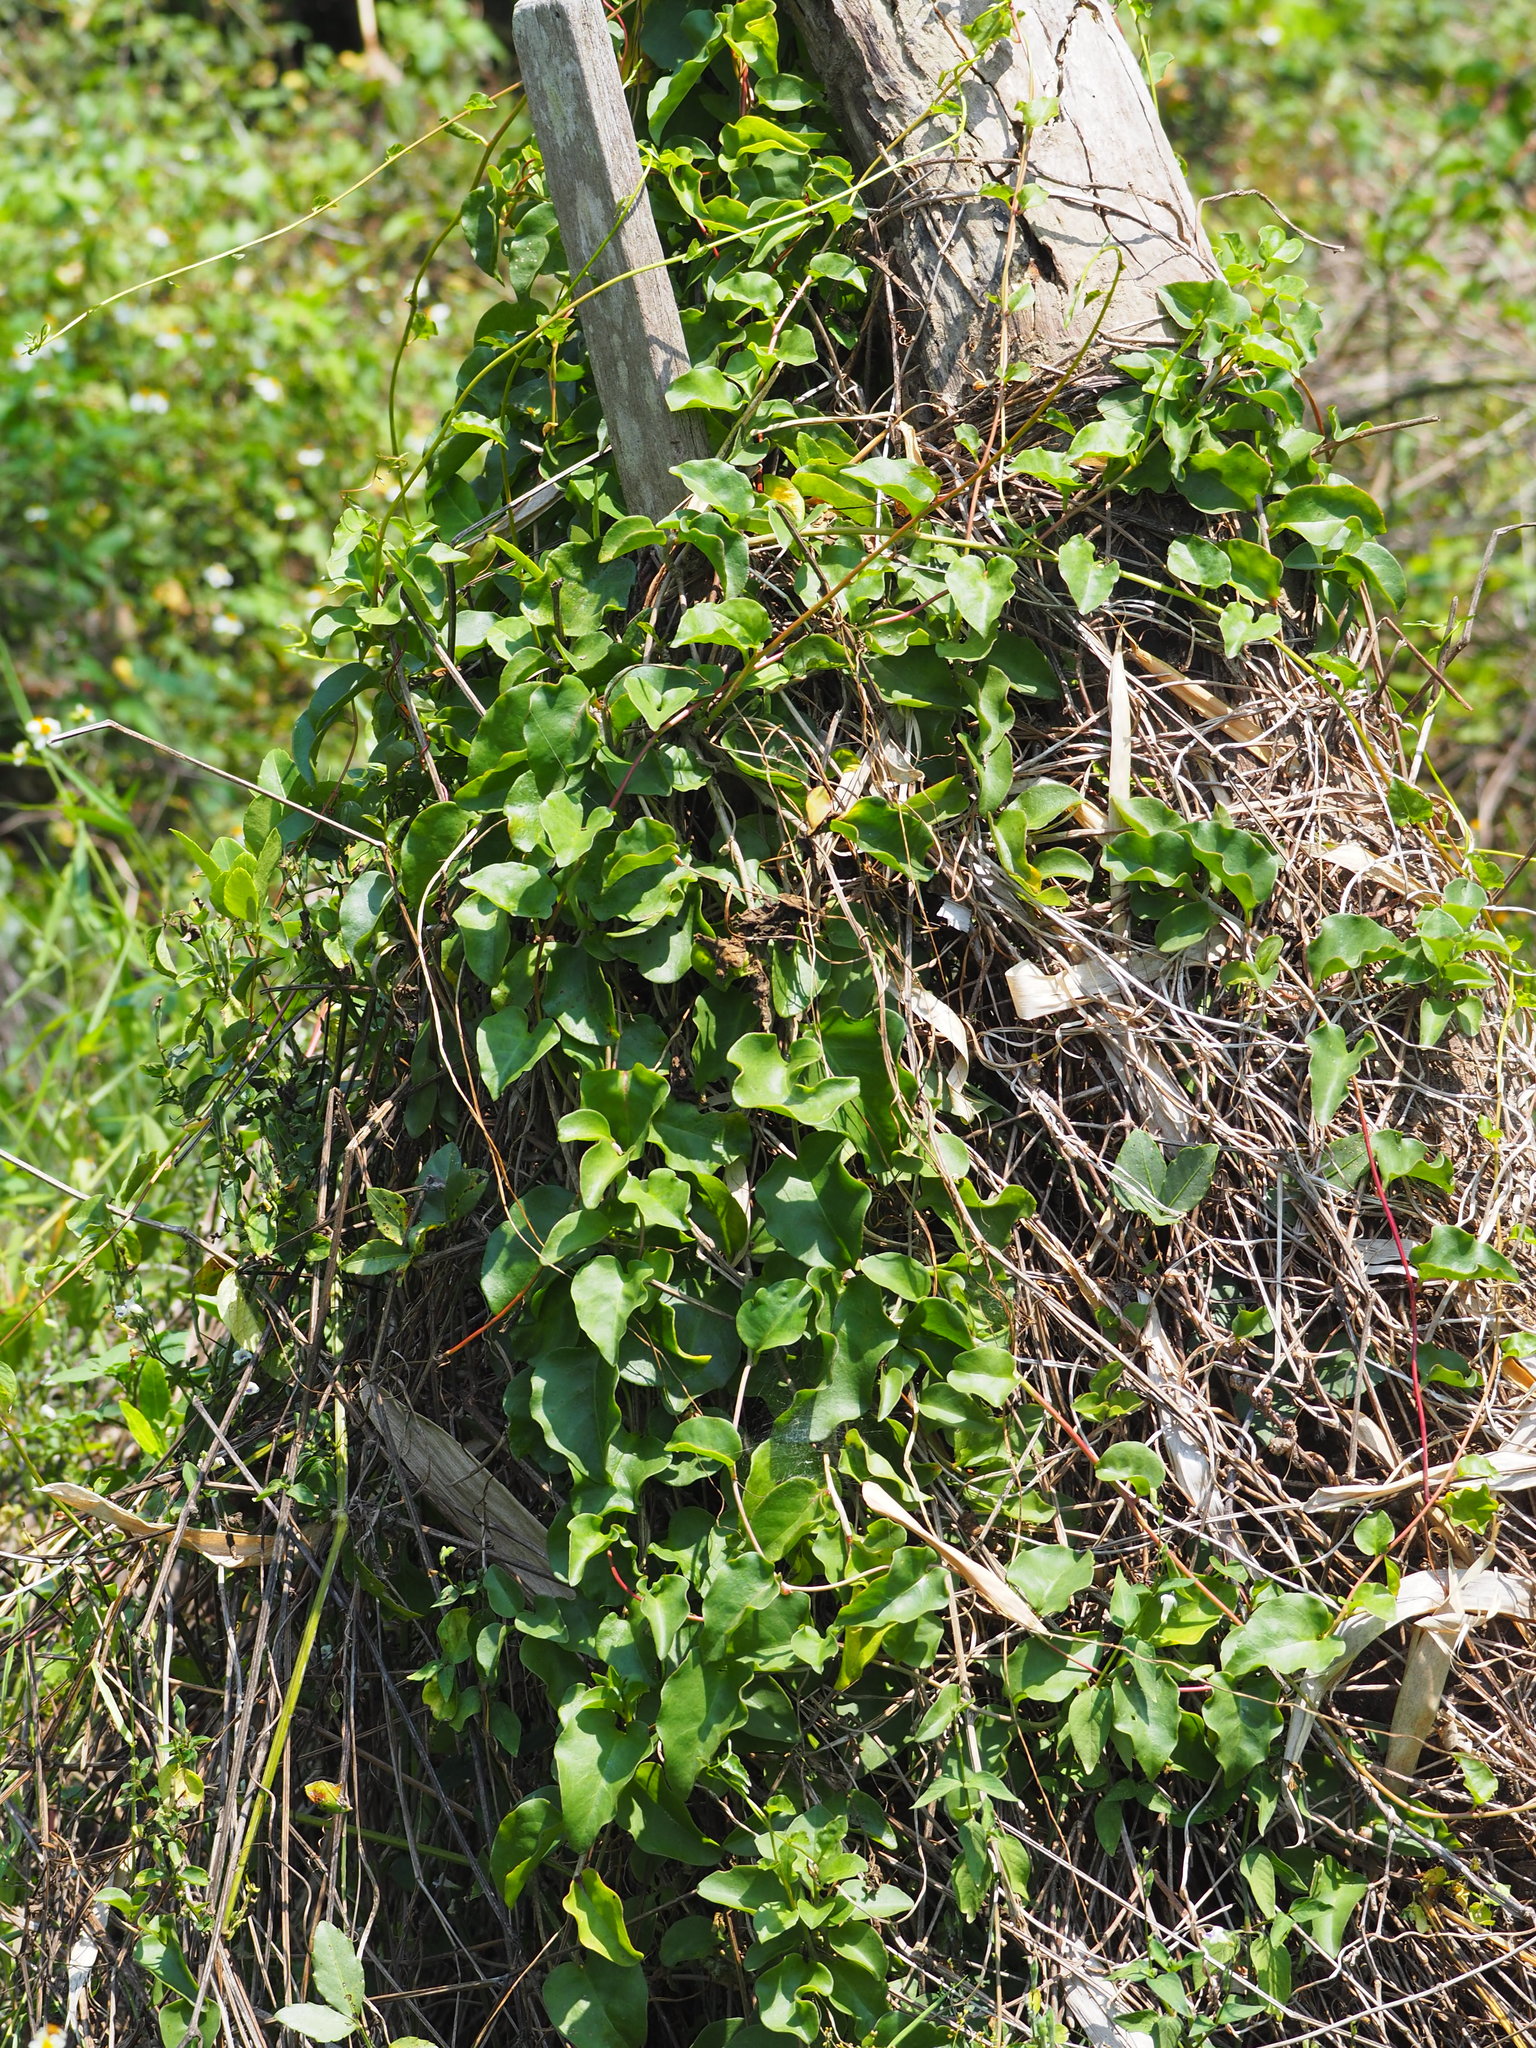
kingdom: Plantae
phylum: Tracheophyta
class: Magnoliopsida
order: Caryophyllales
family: Basellaceae
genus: Anredera
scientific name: Anredera cordifolia
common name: Heartleaf madeiravine
